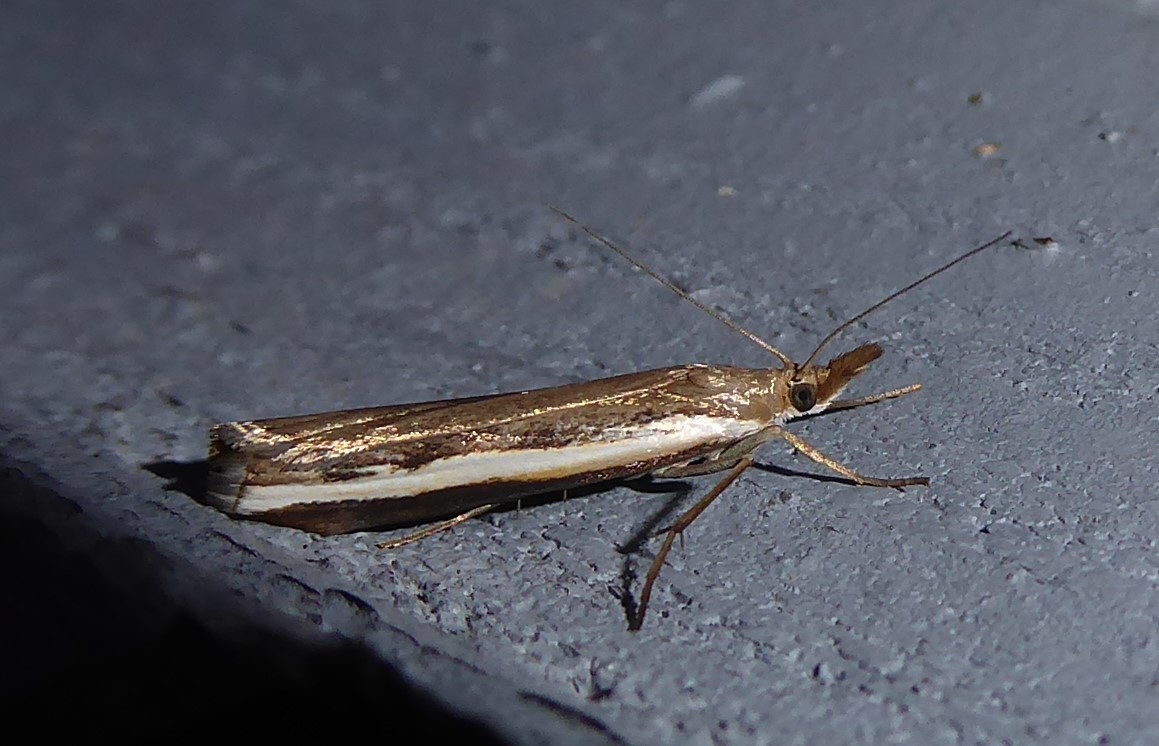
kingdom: Animalia
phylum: Arthropoda
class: Insecta
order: Lepidoptera
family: Crambidae
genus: Orocrambus
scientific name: Orocrambus flexuosellus
